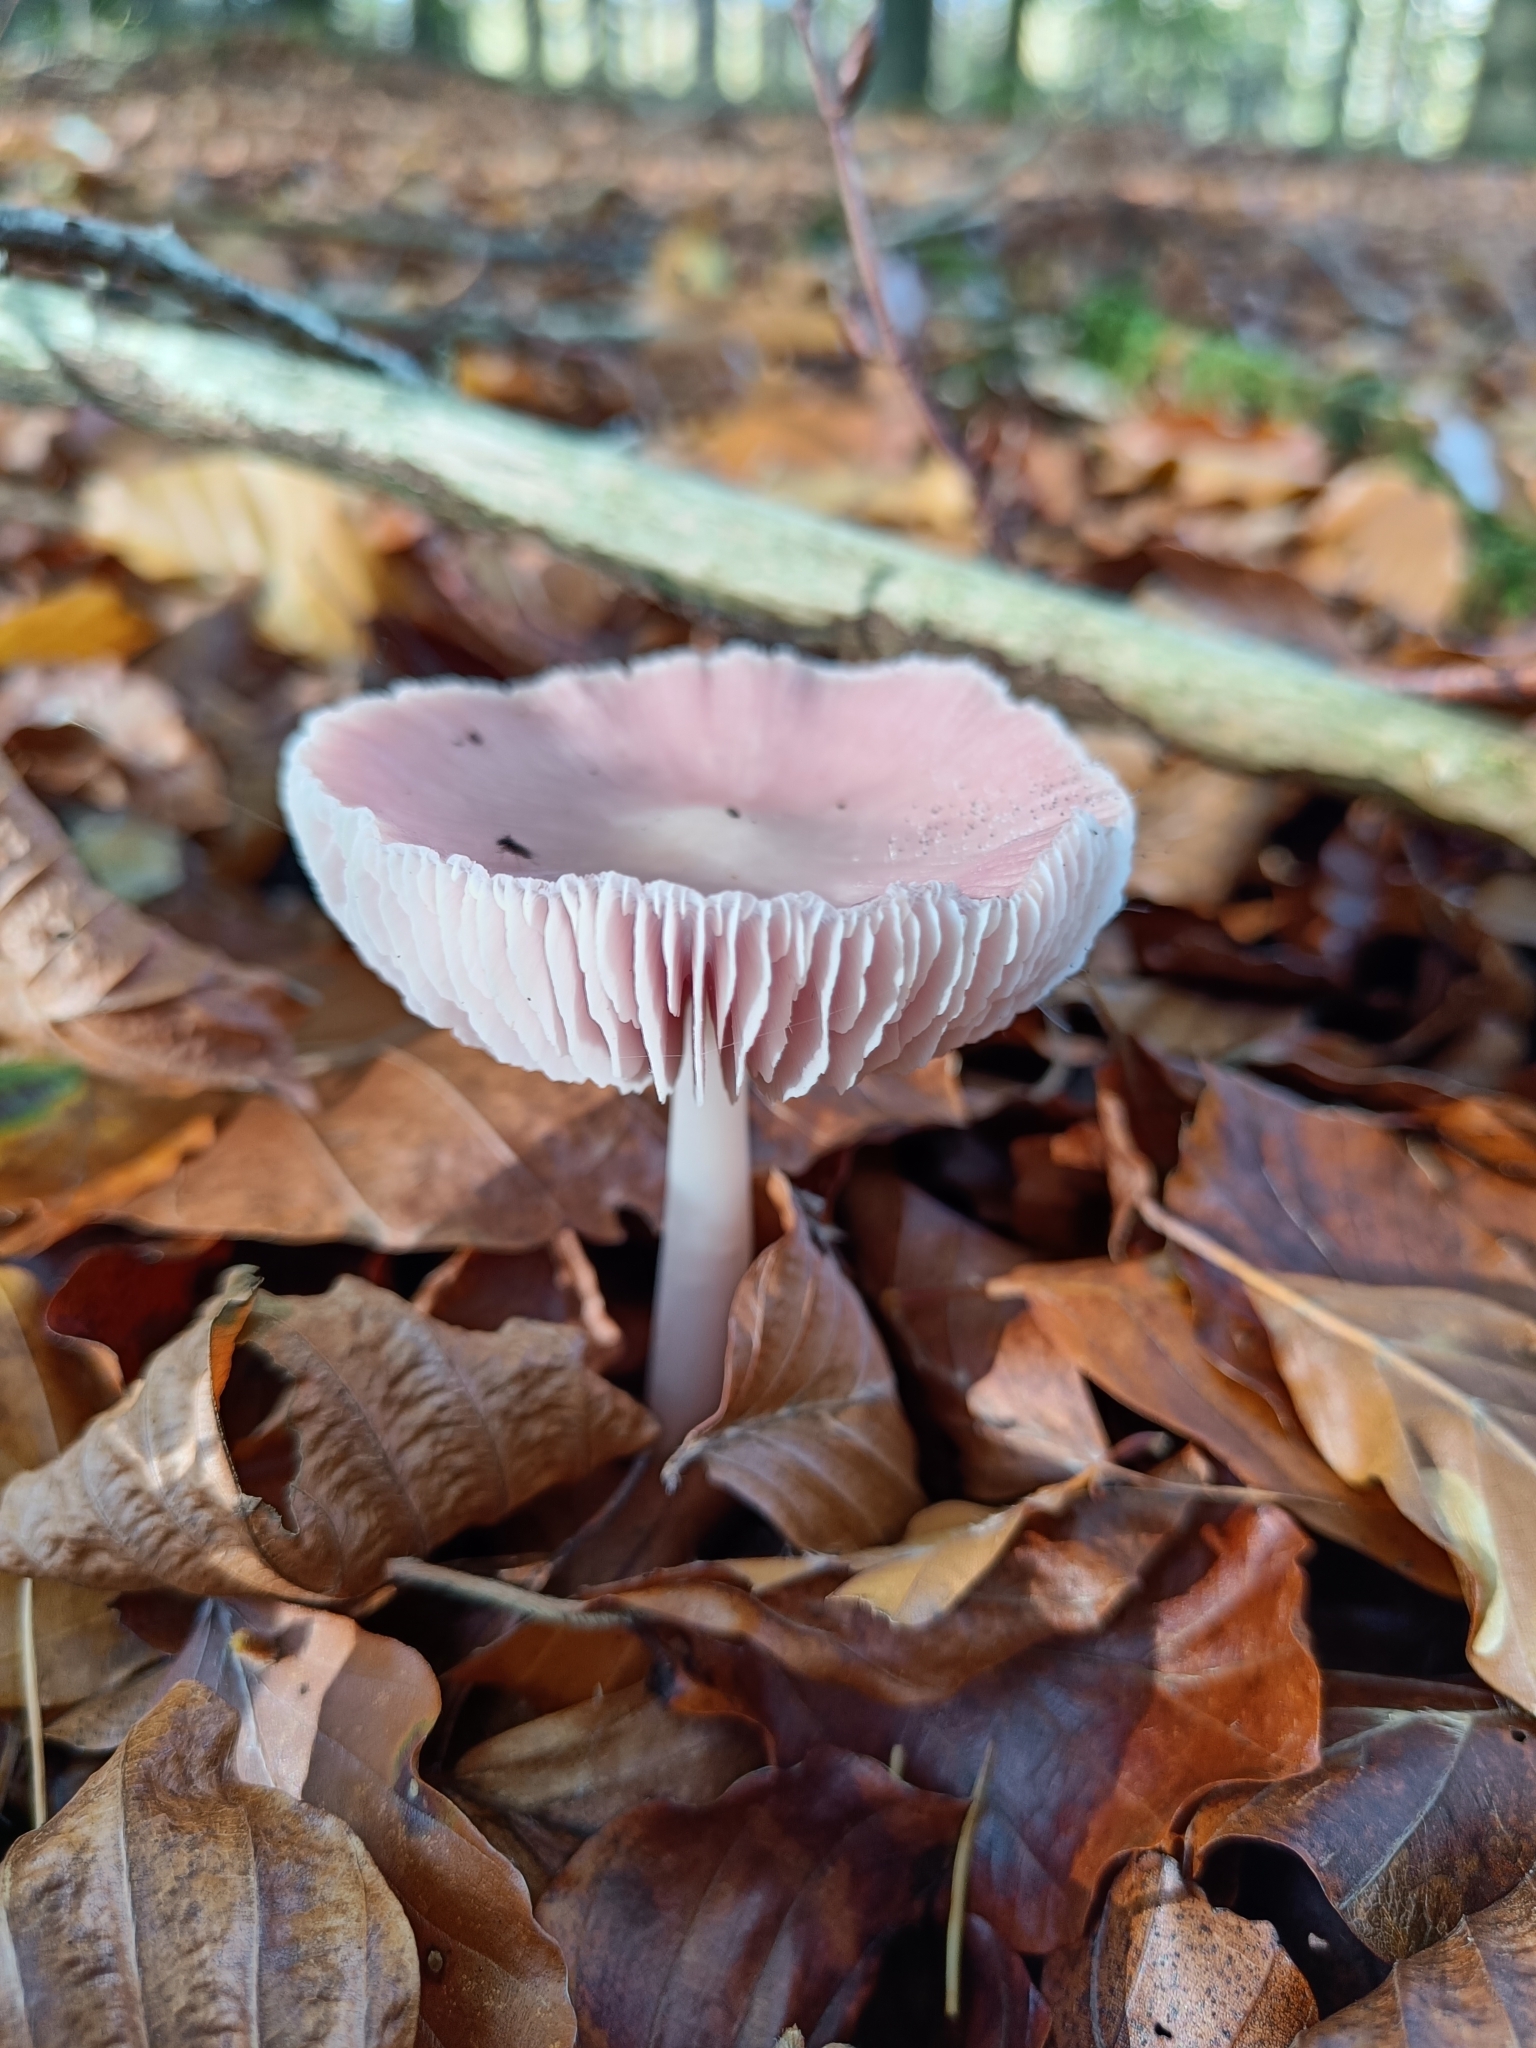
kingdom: Fungi
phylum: Basidiomycota
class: Agaricomycetes
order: Agaricales
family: Mycenaceae
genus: Mycena
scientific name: Mycena rosea
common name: Rosy bonnet
